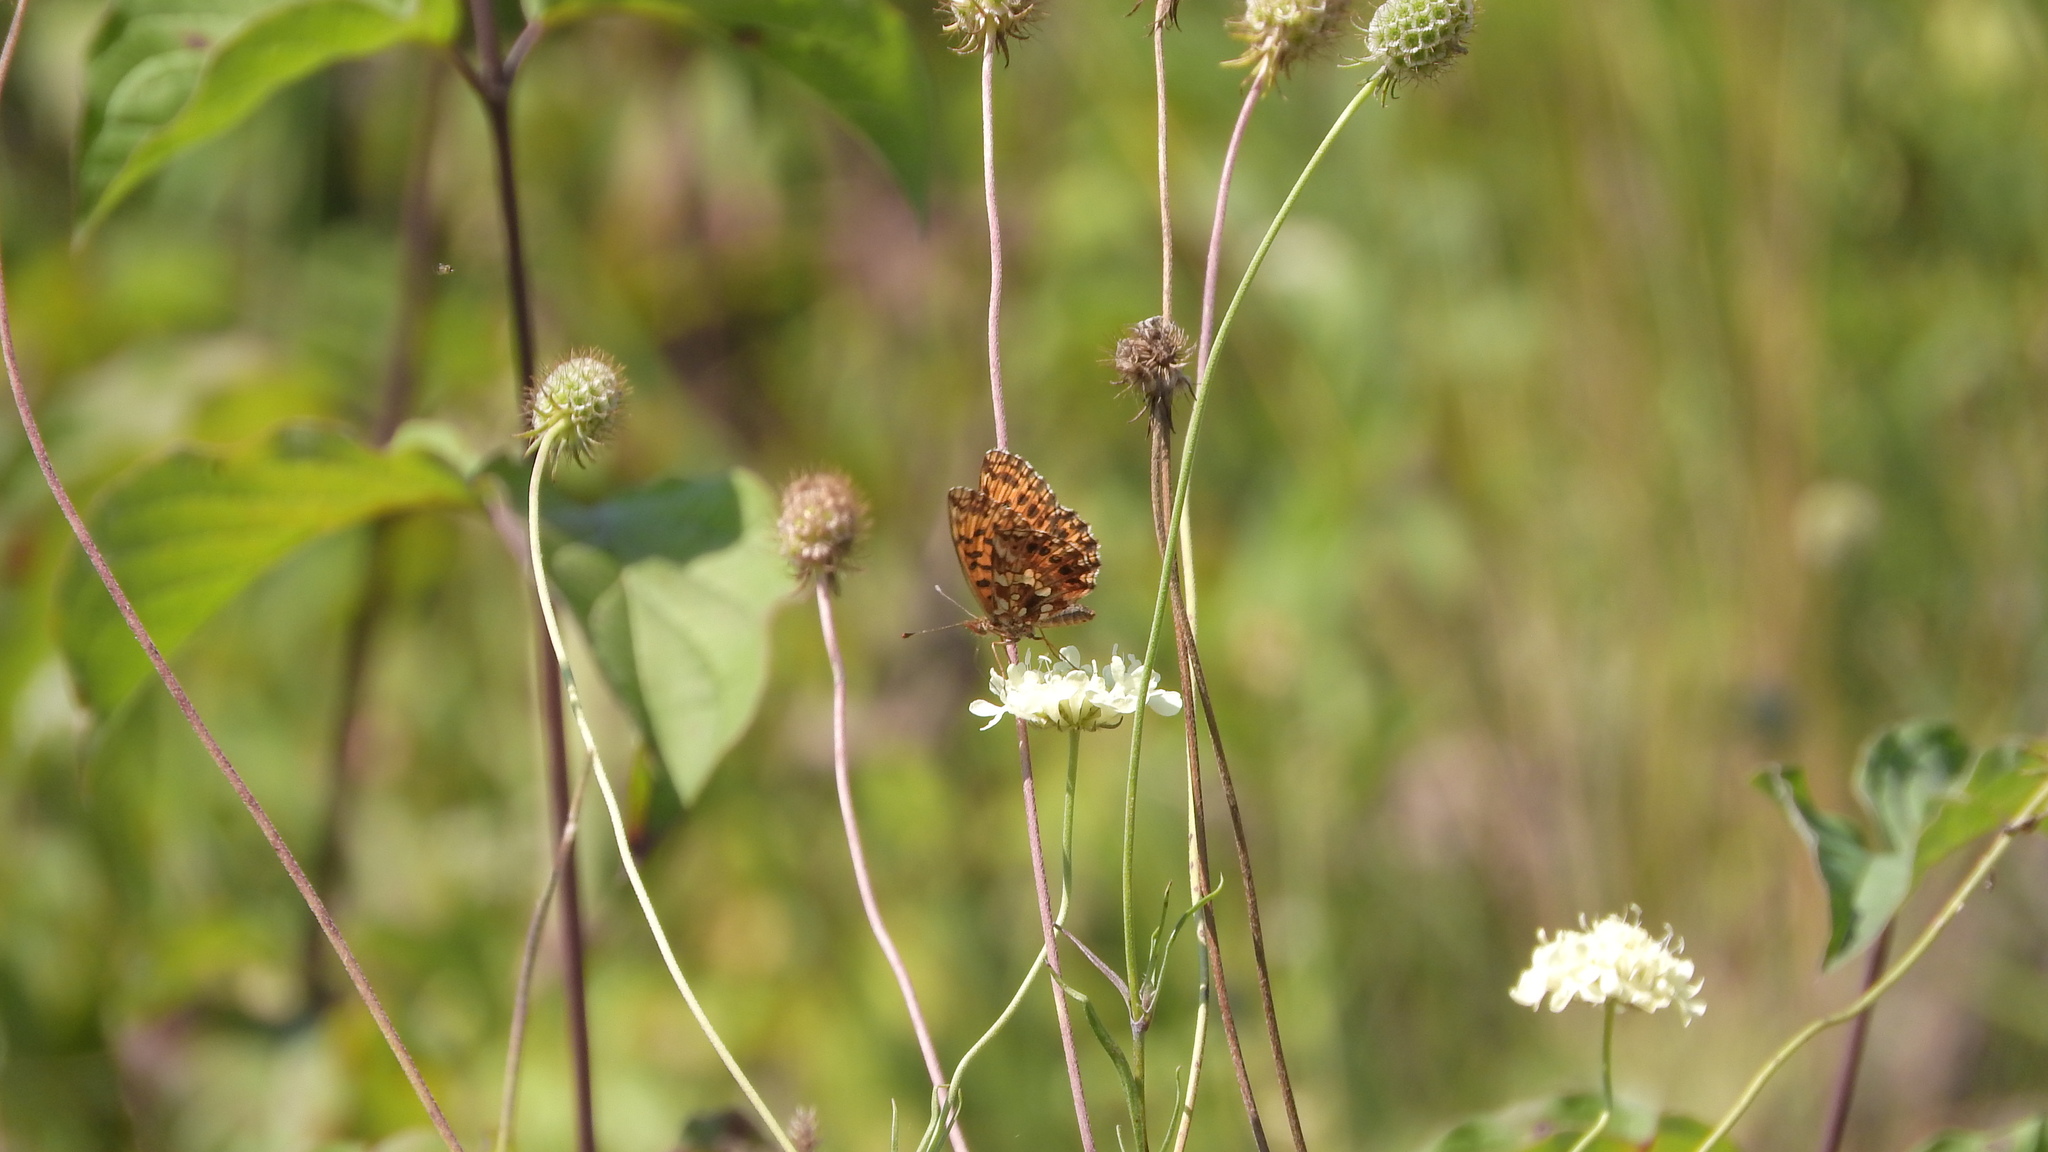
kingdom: Animalia
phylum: Arthropoda
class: Insecta
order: Lepidoptera
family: Nymphalidae
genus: Boloria
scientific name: Boloria dia
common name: Weaver's fritillary
